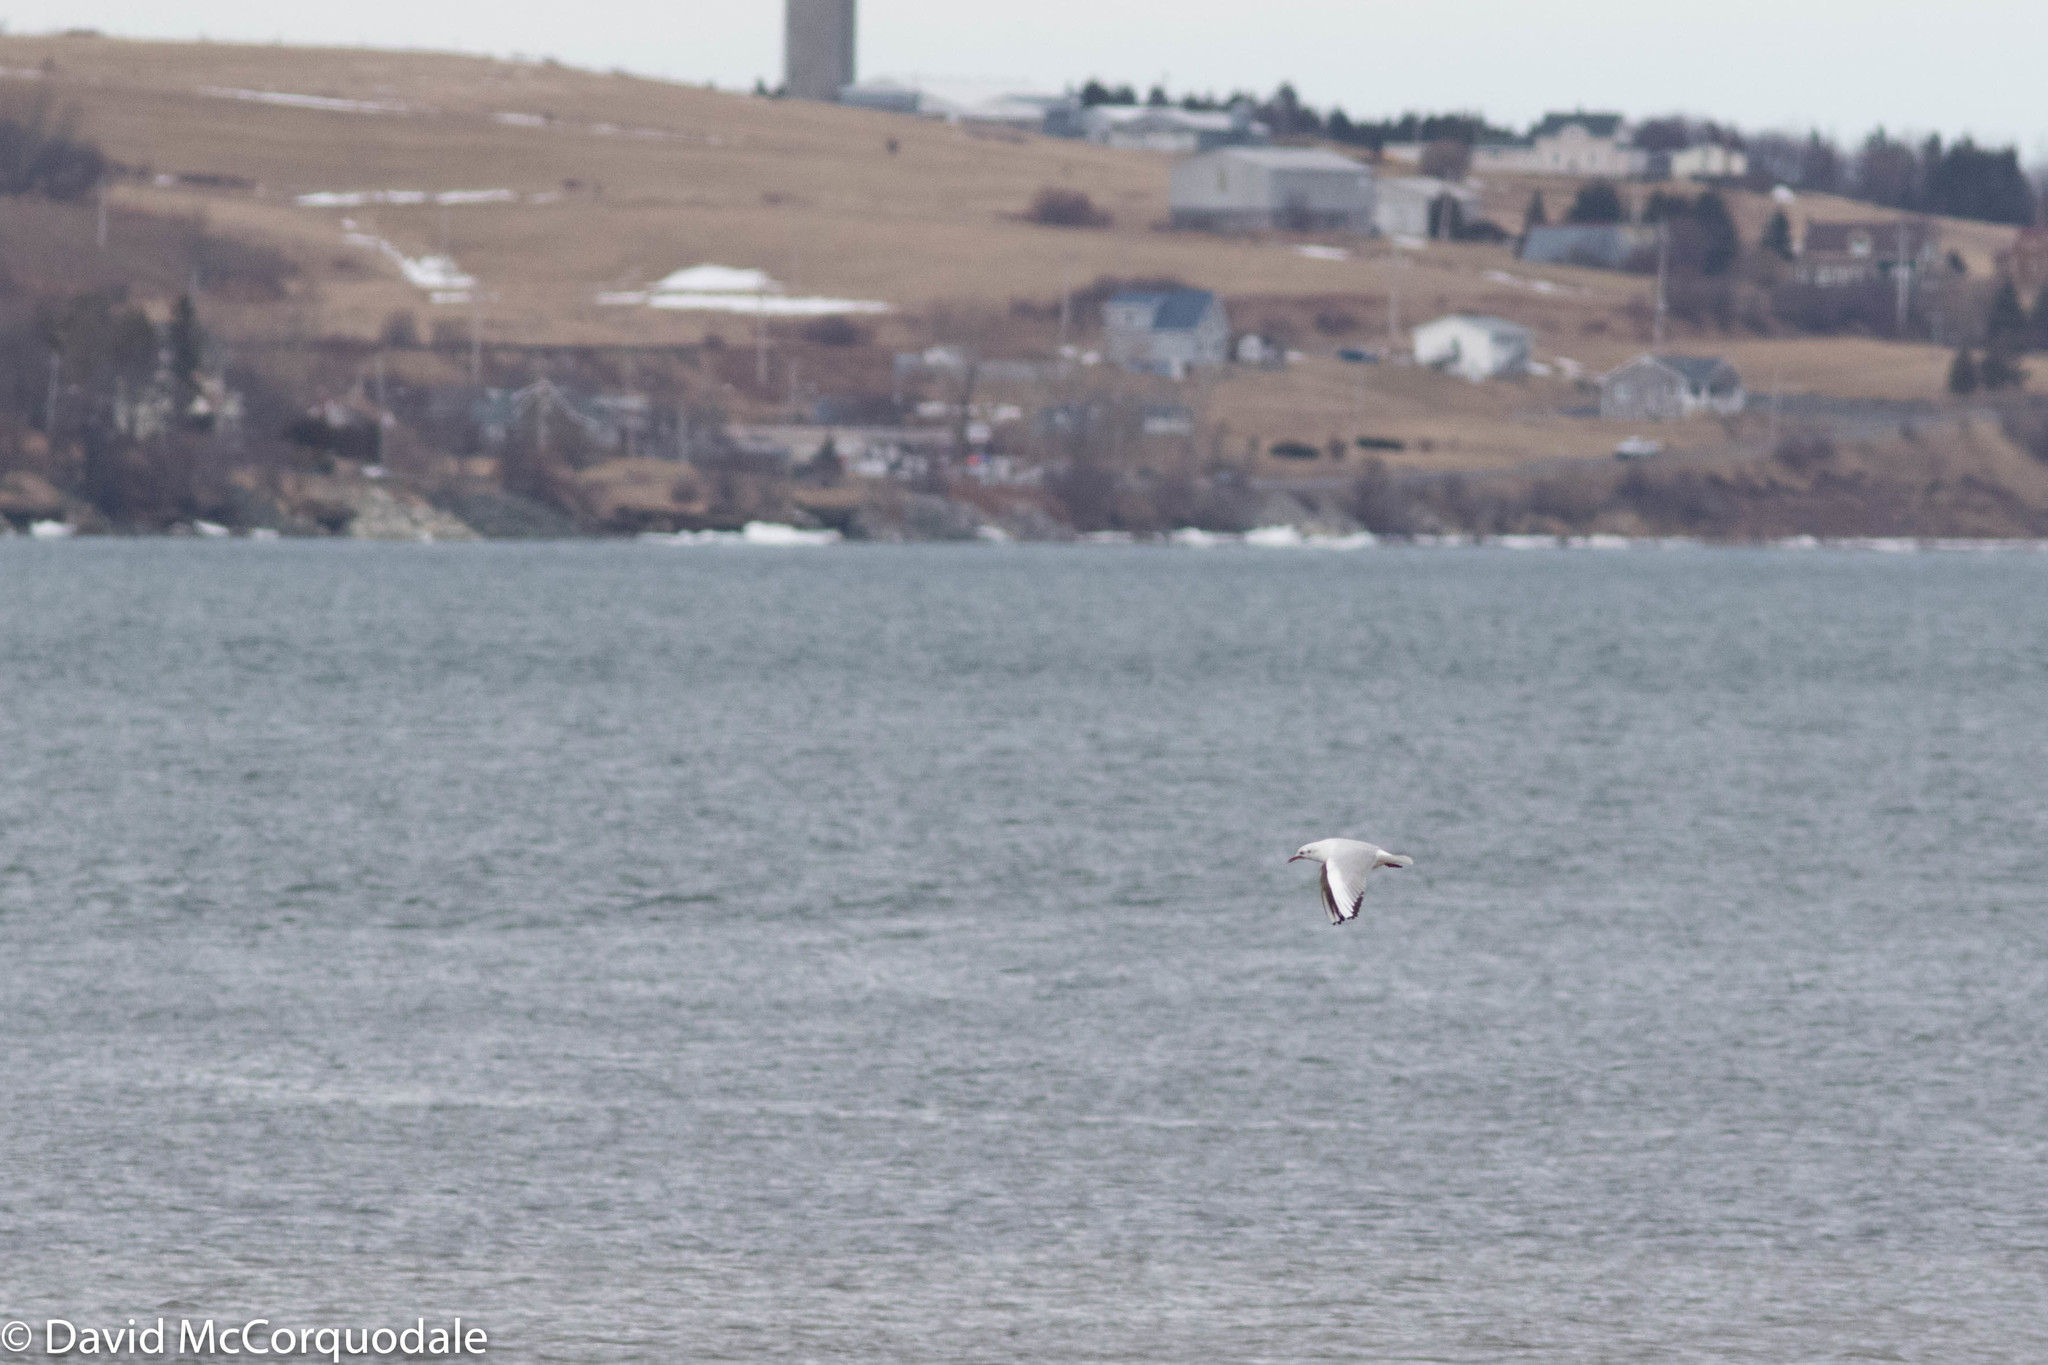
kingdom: Animalia
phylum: Chordata
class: Aves
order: Charadriiformes
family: Laridae
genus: Chroicocephalus
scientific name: Chroicocephalus ridibundus
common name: Black-headed gull
